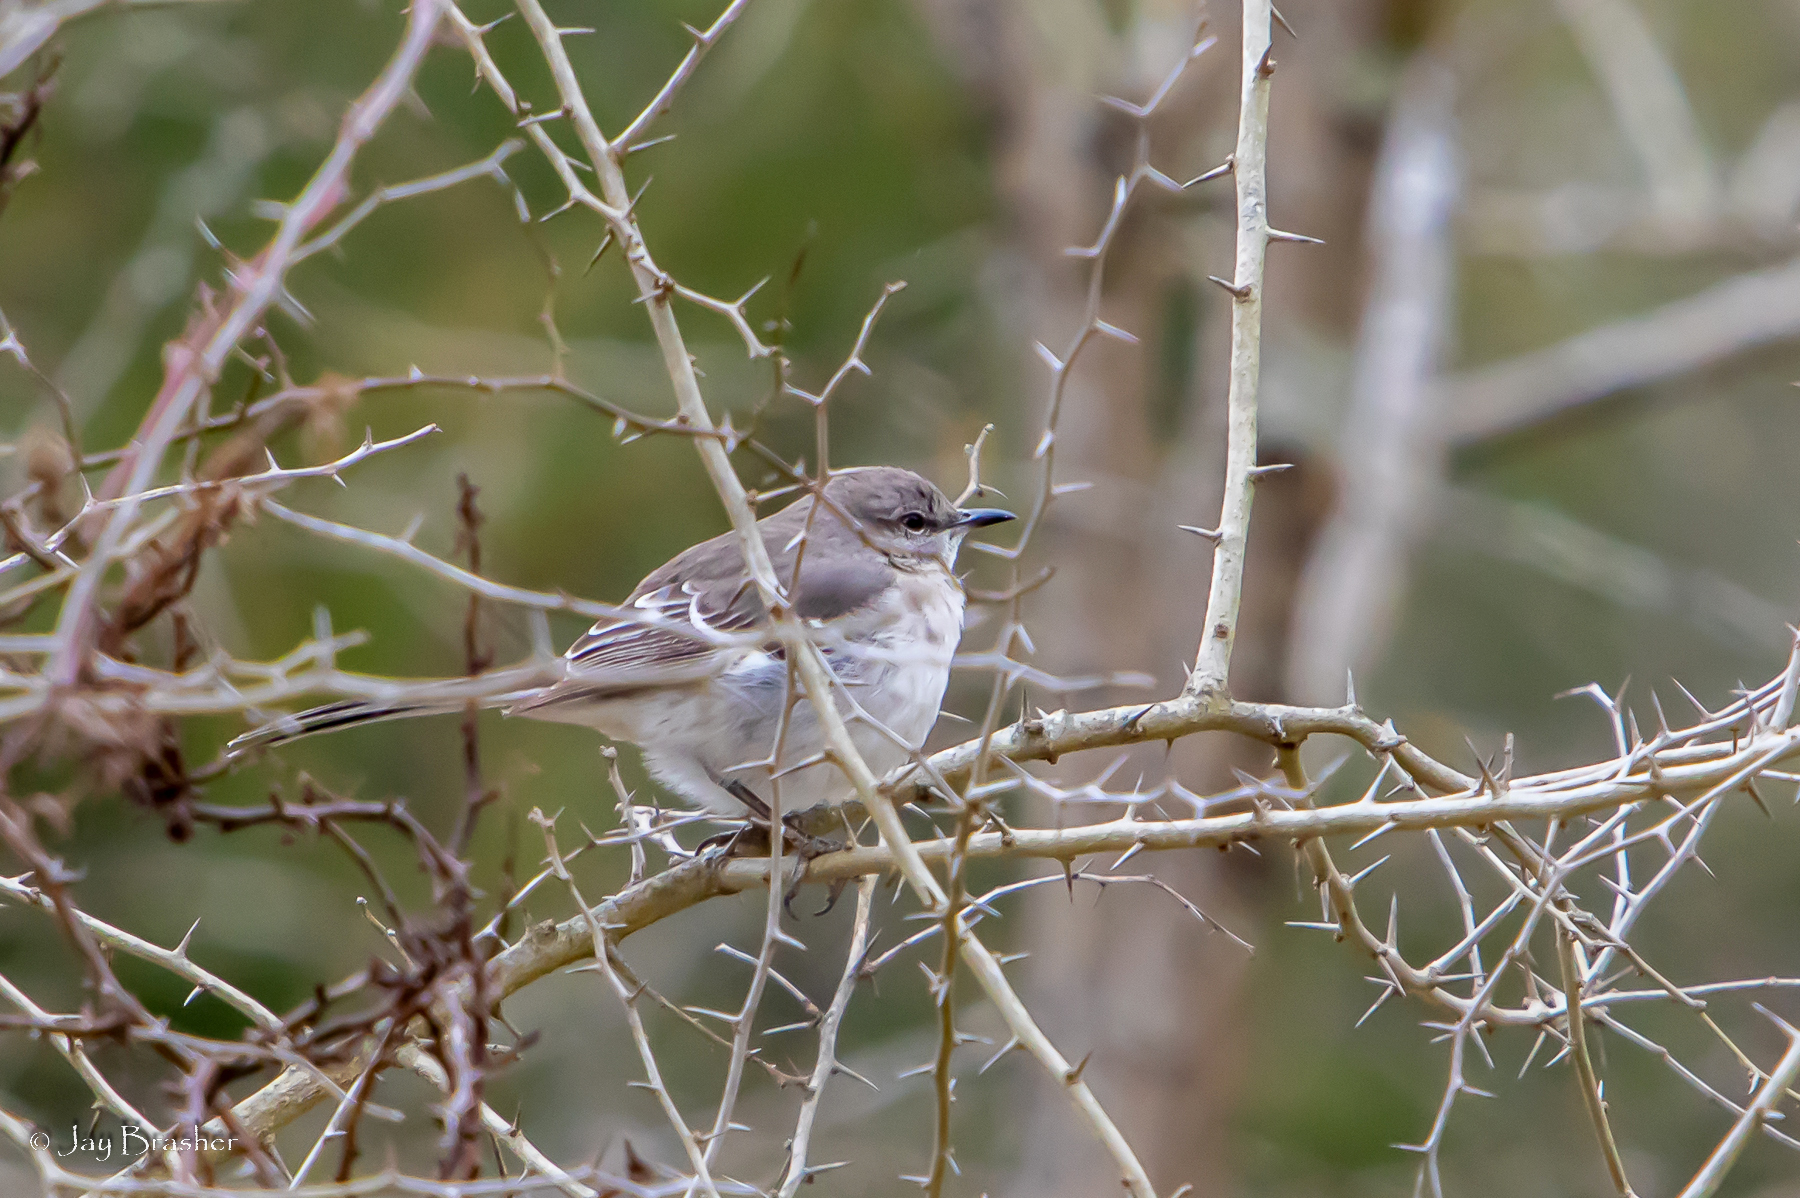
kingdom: Animalia
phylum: Chordata
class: Aves
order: Passeriformes
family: Mimidae
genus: Mimus
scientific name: Mimus polyglottos
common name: Northern mockingbird
